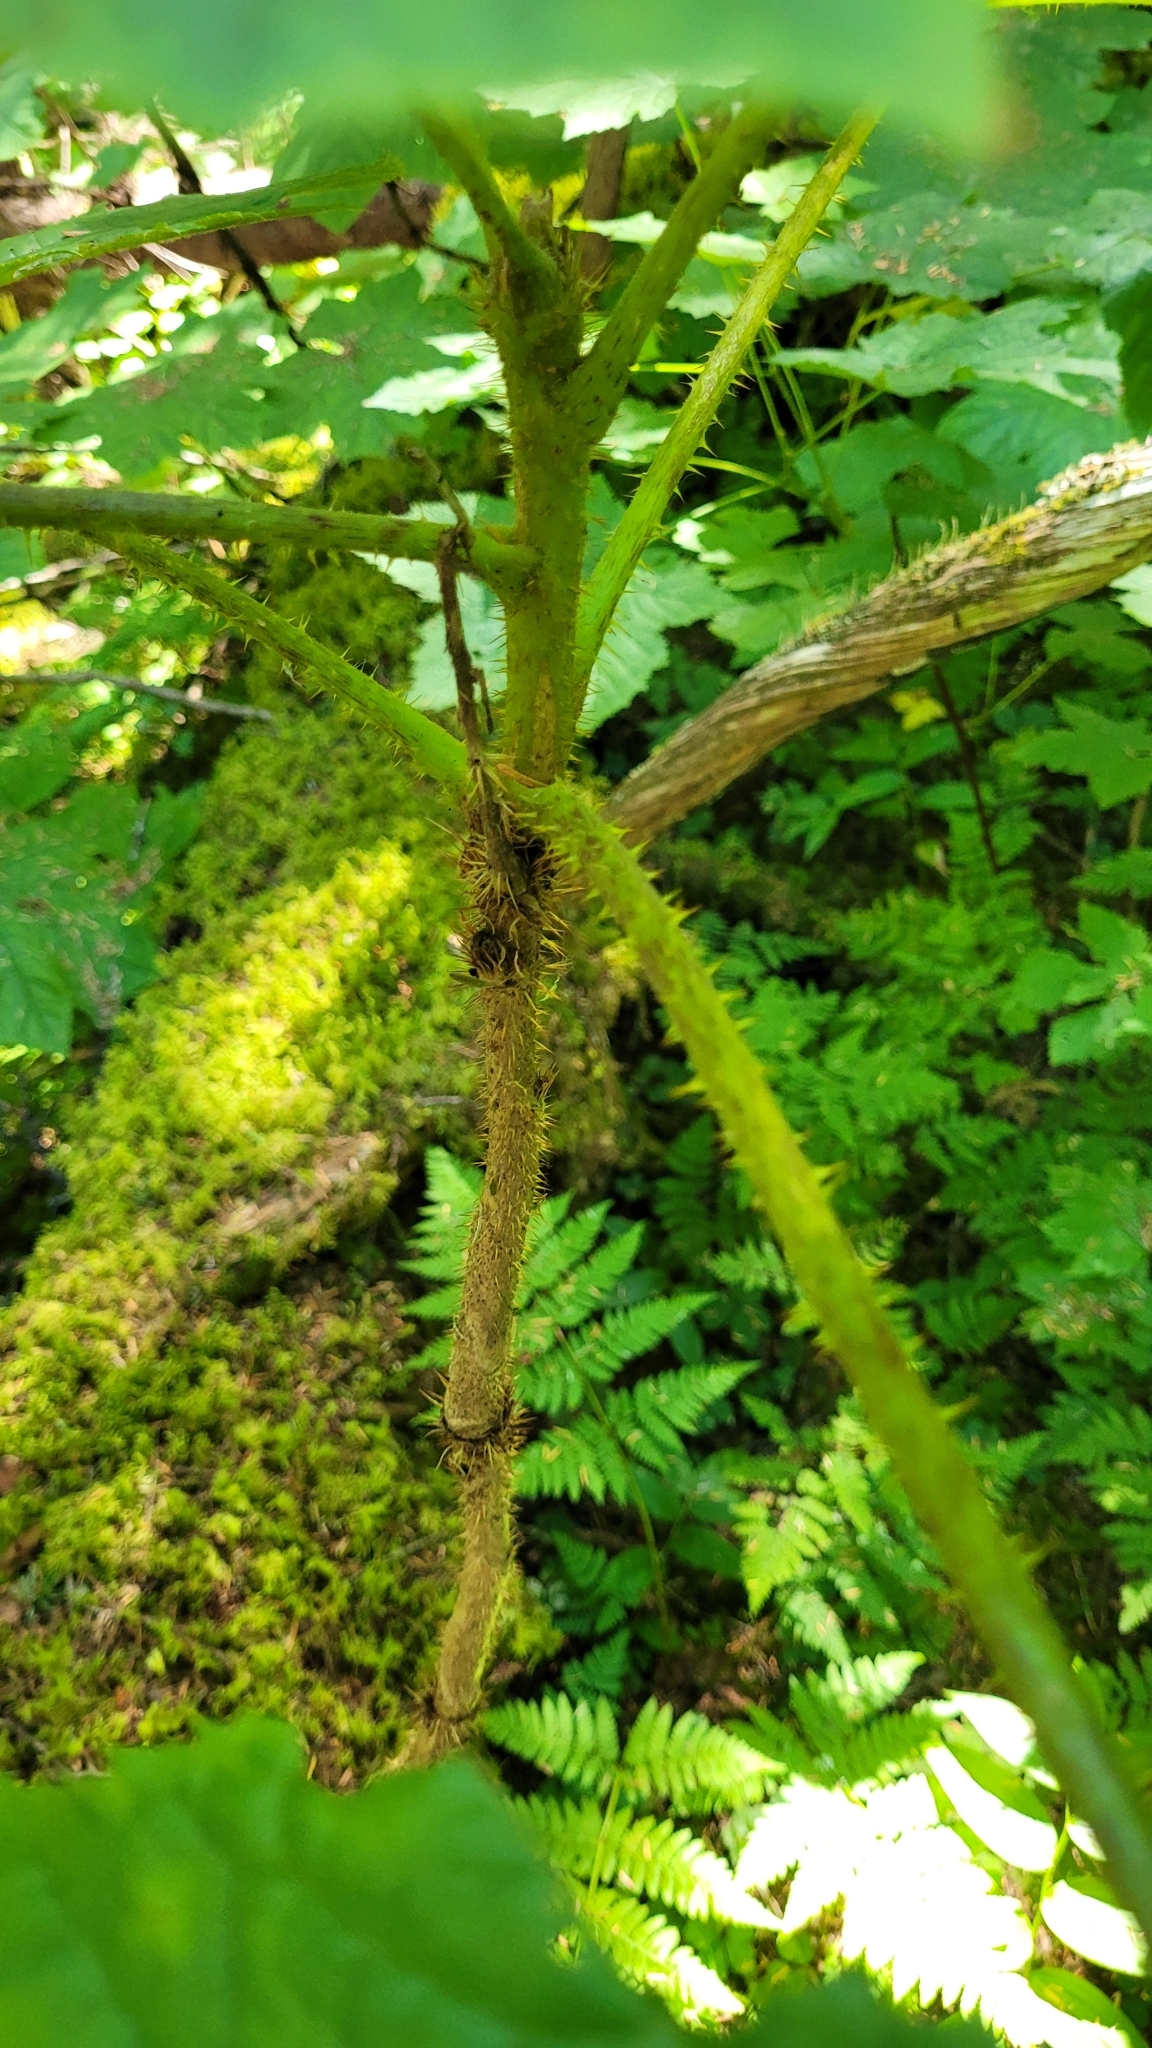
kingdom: Plantae
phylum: Tracheophyta
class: Magnoliopsida
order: Apiales
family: Araliaceae
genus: Oplopanax
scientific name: Oplopanax horridus
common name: Devil's walking-stick
